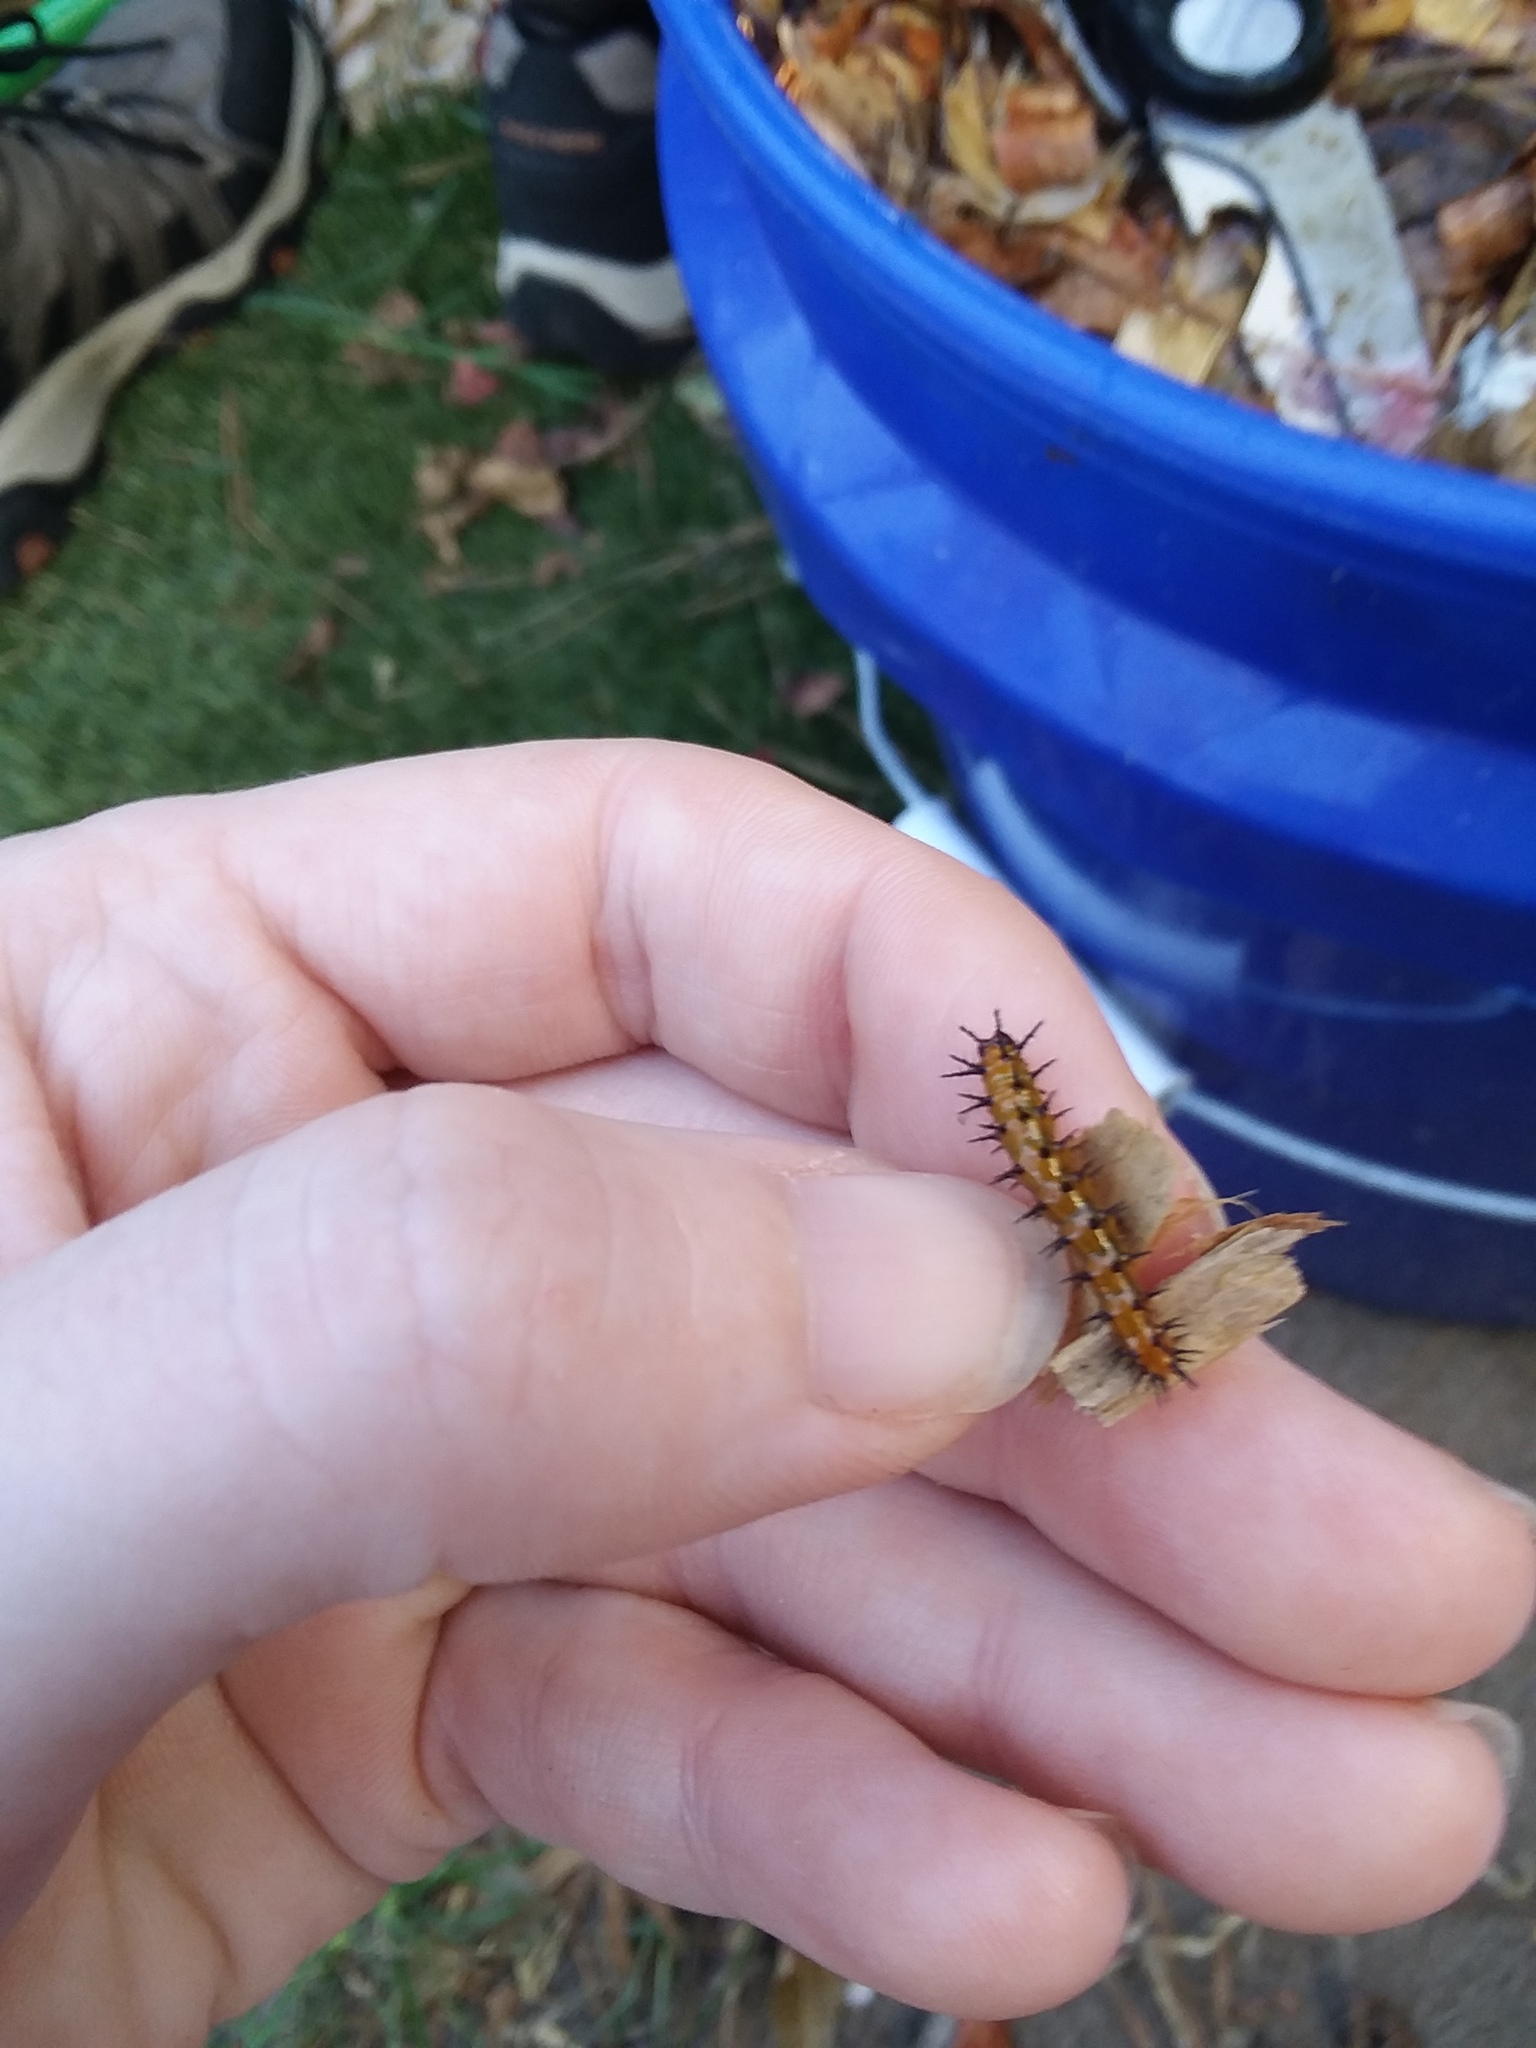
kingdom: Animalia
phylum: Arthropoda
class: Insecta
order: Lepidoptera
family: Nymphalidae
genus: Dione
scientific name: Dione vanillae
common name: Gulf fritillary
